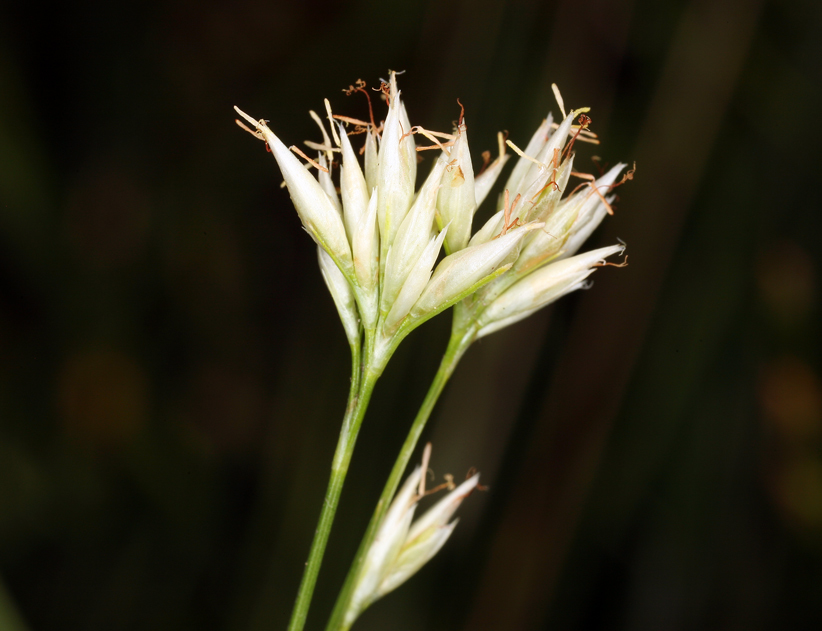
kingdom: Plantae
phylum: Tracheophyta
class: Liliopsida
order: Poales
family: Cyperaceae
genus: Rhynchospora
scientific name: Rhynchospora alba
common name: White beak-sedge
